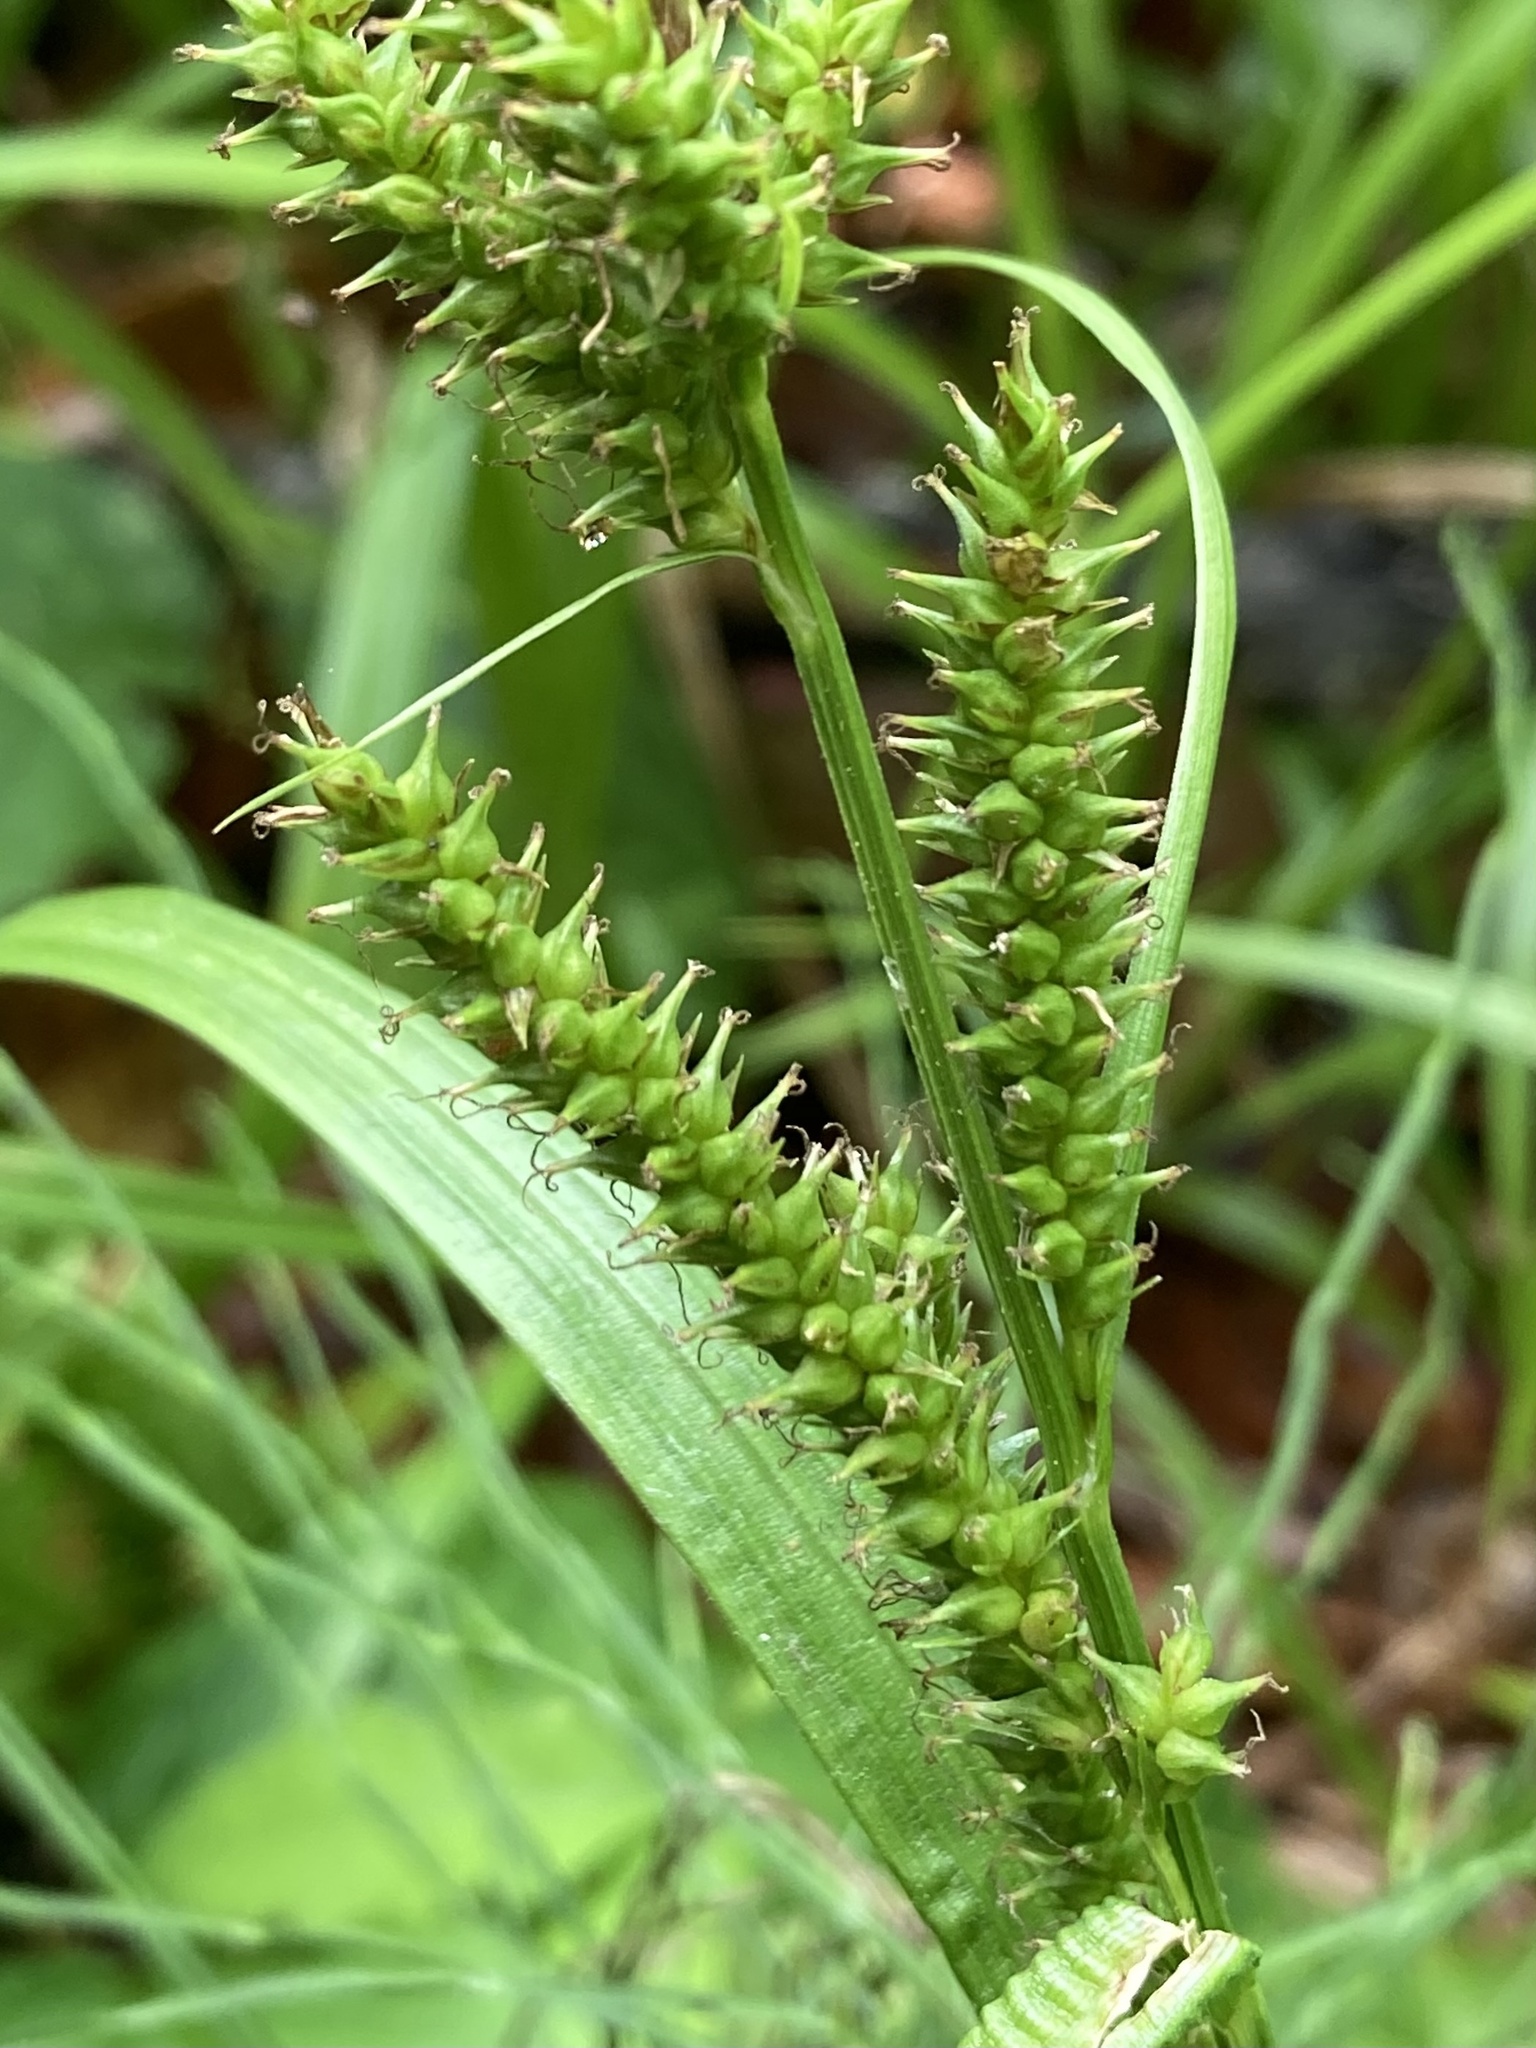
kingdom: Plantae
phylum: Tracheophyta
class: Liliopsida
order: Poales
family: Cyperaceae
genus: Carex
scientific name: Carex scabrata
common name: Eastern rough sedge
